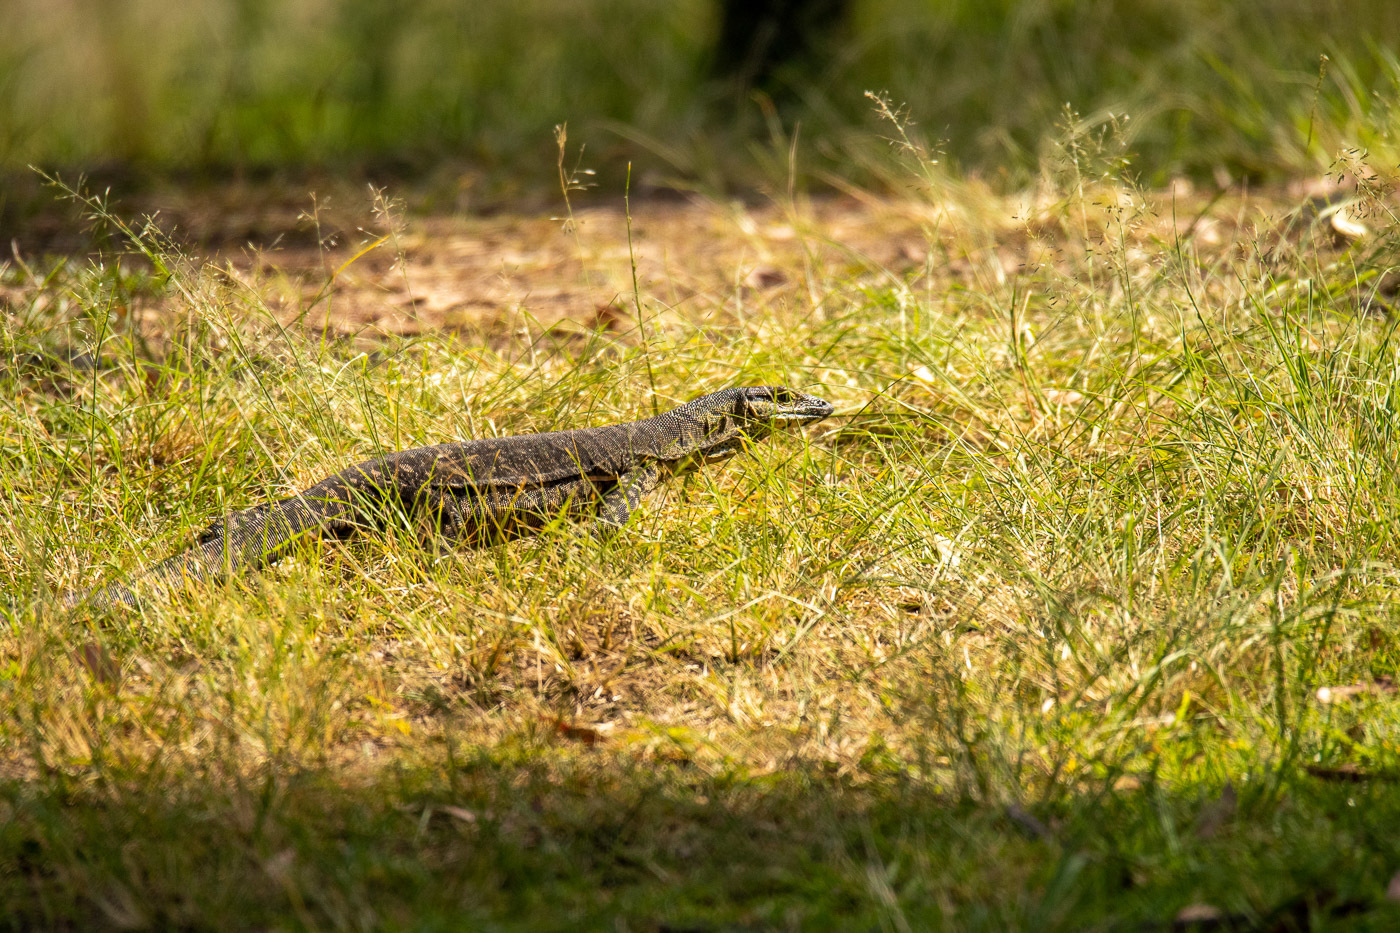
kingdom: Animalia
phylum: Chordata
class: Squamata
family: Varanidae
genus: Varanus
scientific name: Varanus varius
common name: Lace monitor
